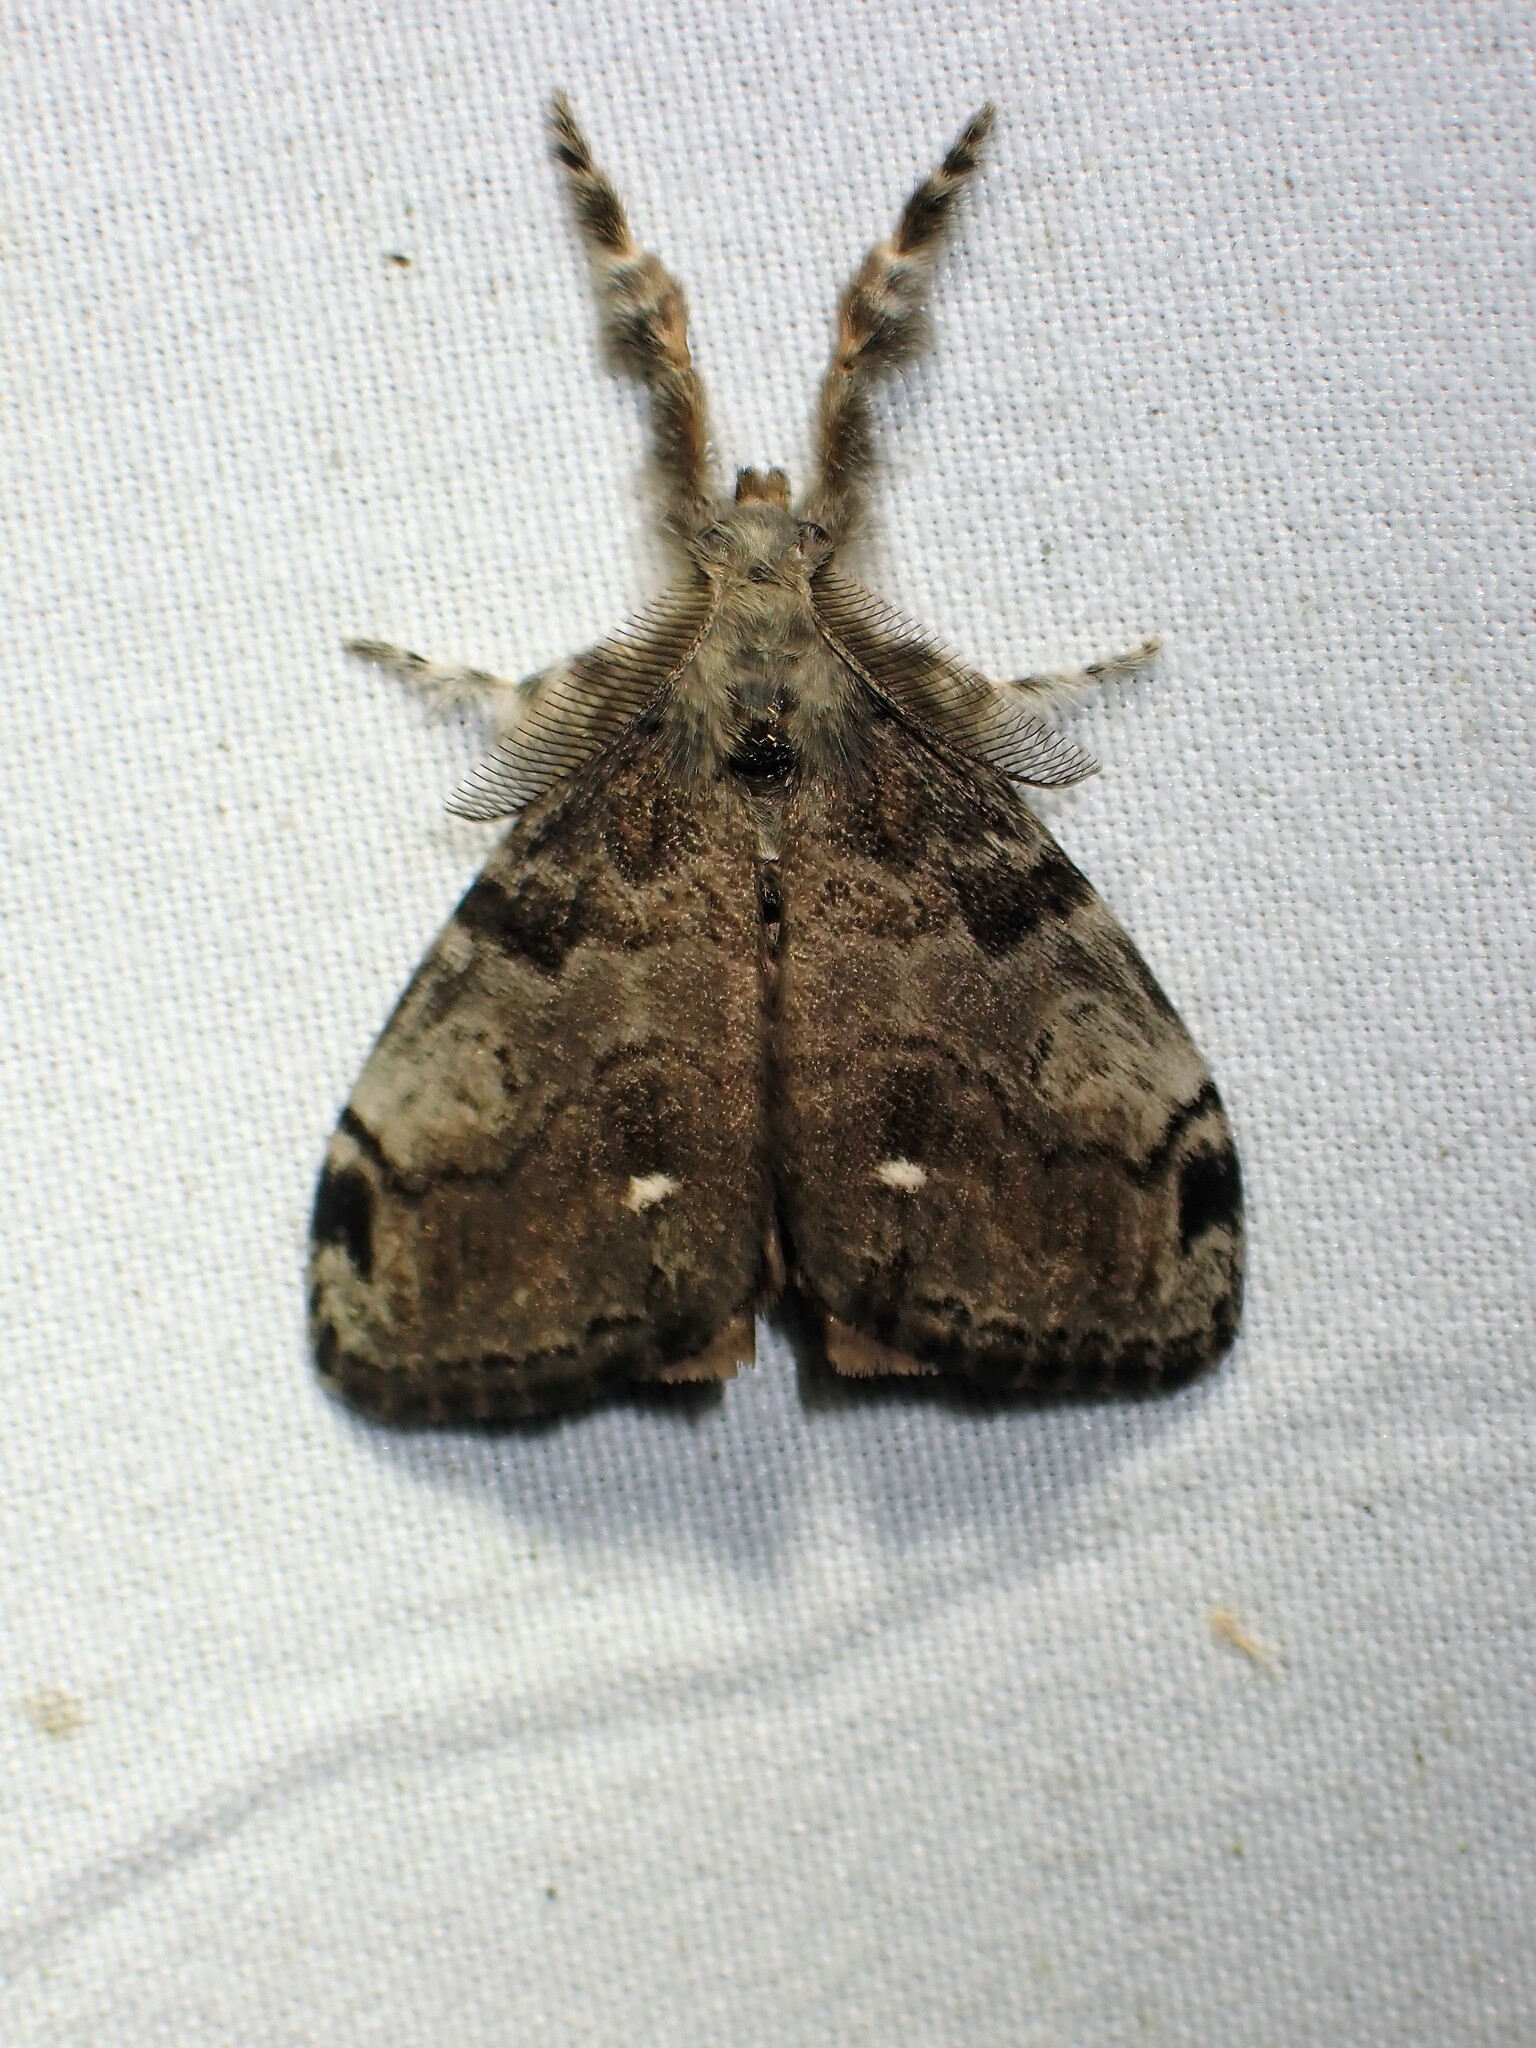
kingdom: Animalia
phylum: Arthropoda
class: Insecta
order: Lepidoptera
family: Erebidae
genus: Orgyia
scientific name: Orgyia leucostigma
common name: White-marked tussock moth
